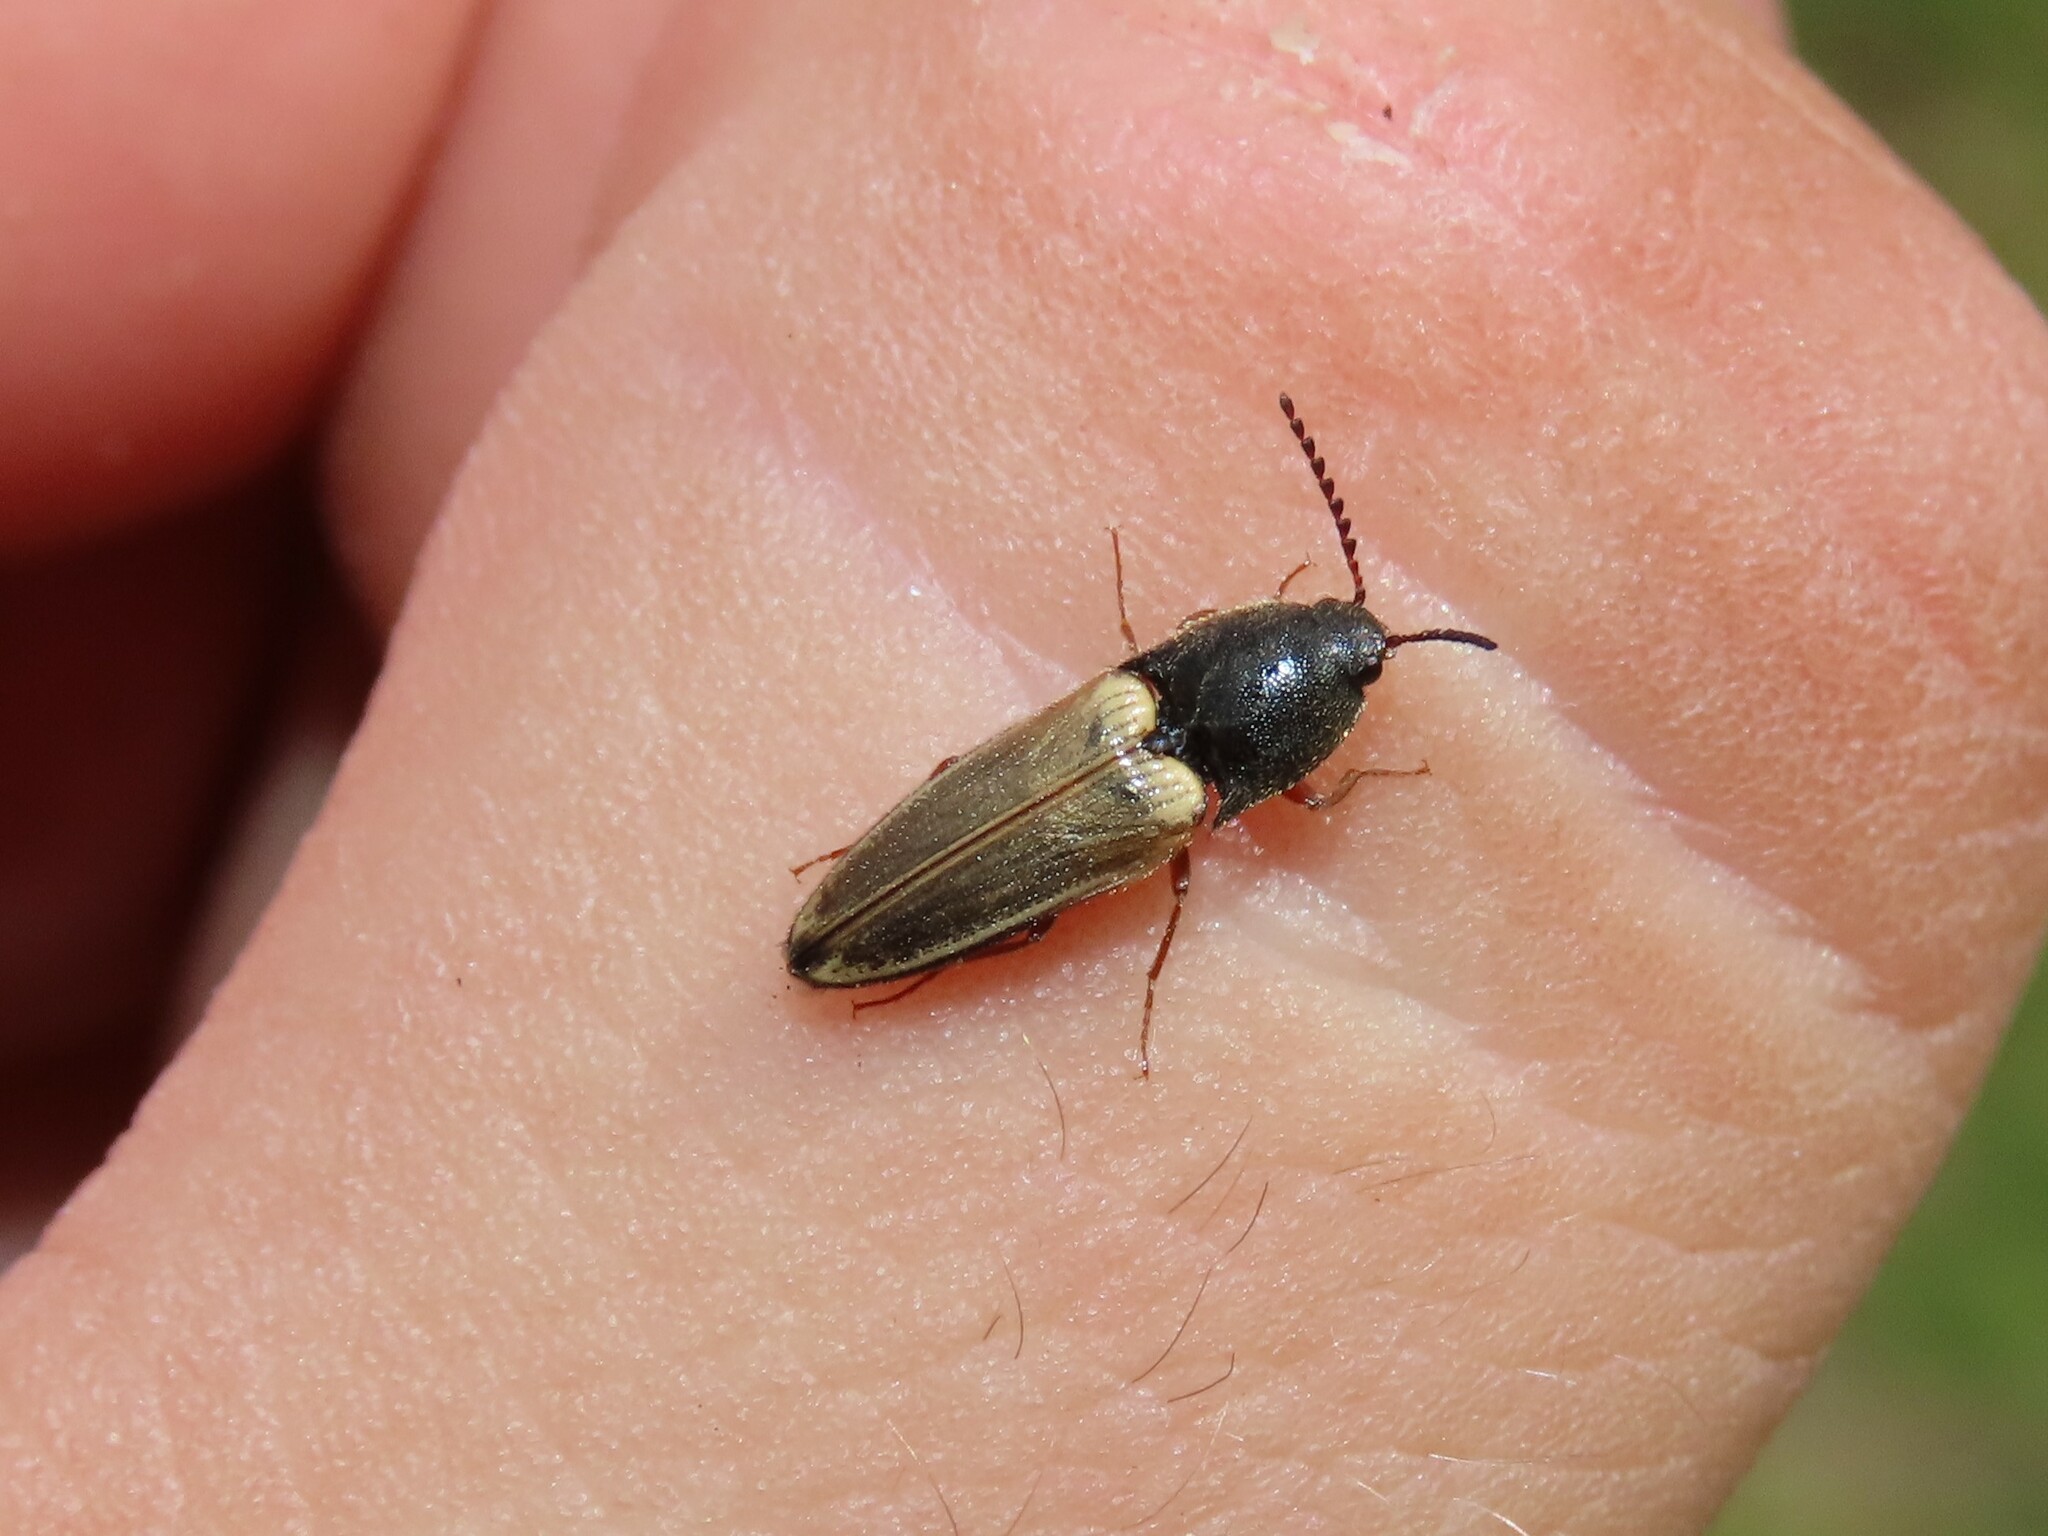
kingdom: Animalia
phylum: Arthropoda
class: Insecta
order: Coleoptera
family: Elateridae
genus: Ampedus
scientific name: Ampedus nigricollis
